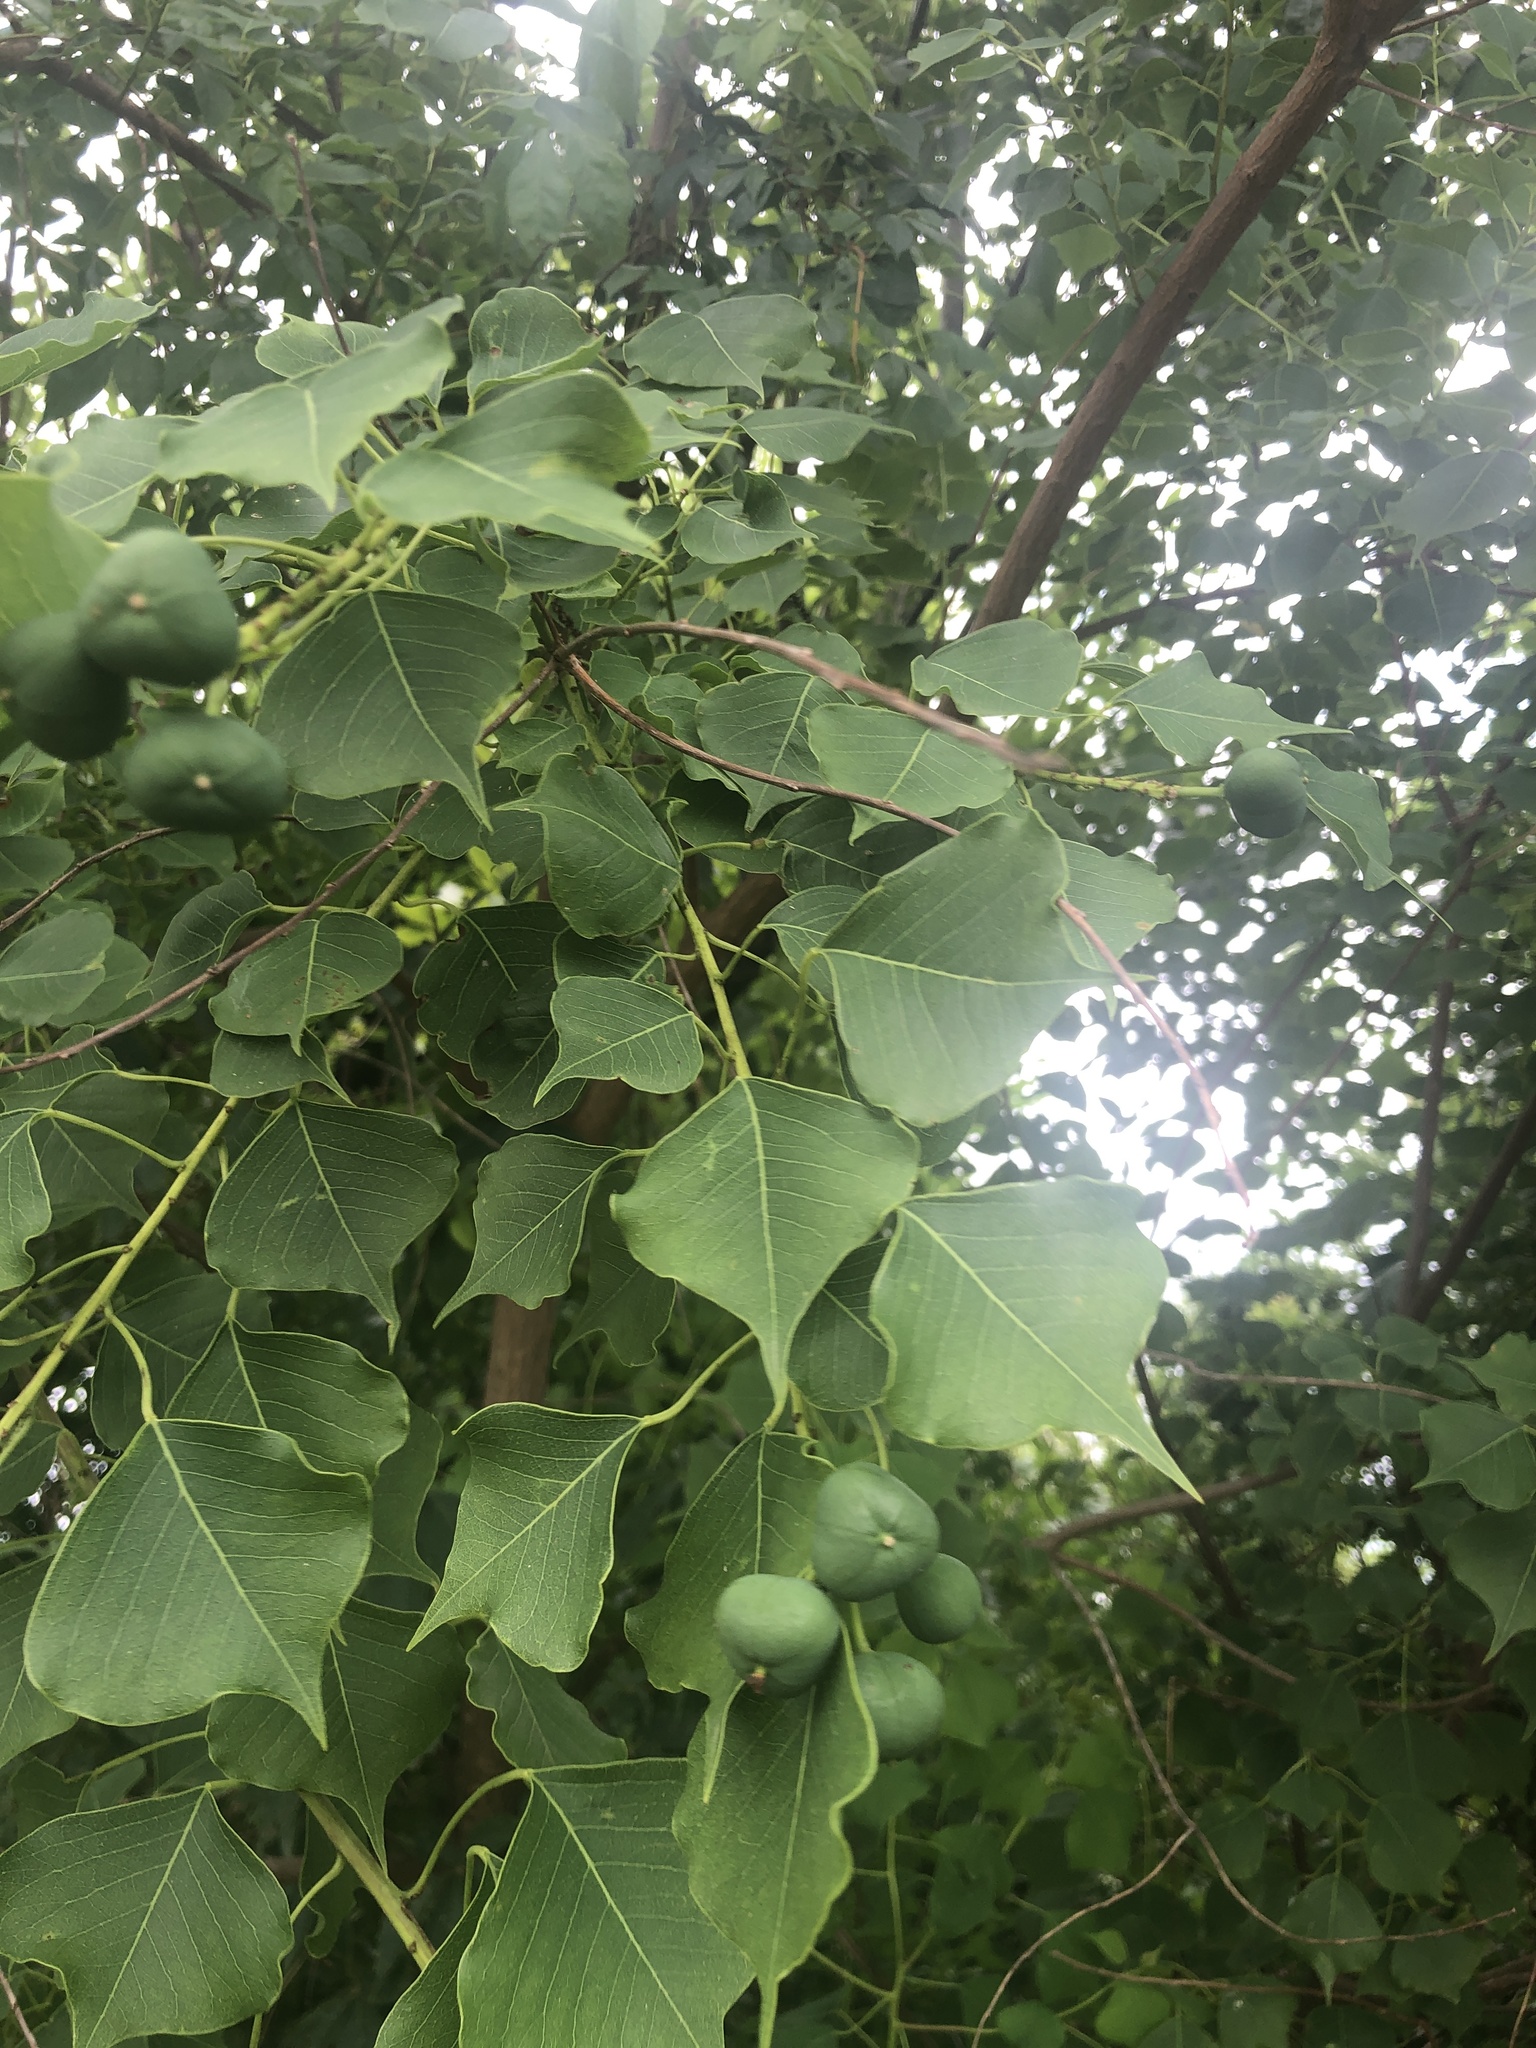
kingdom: Plantae
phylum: Tracheophyta
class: Magnoliopsida
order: Malpighiales
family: Euphorbiaceae
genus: Triadica
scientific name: Triadica sebifera
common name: Chinese tallow
